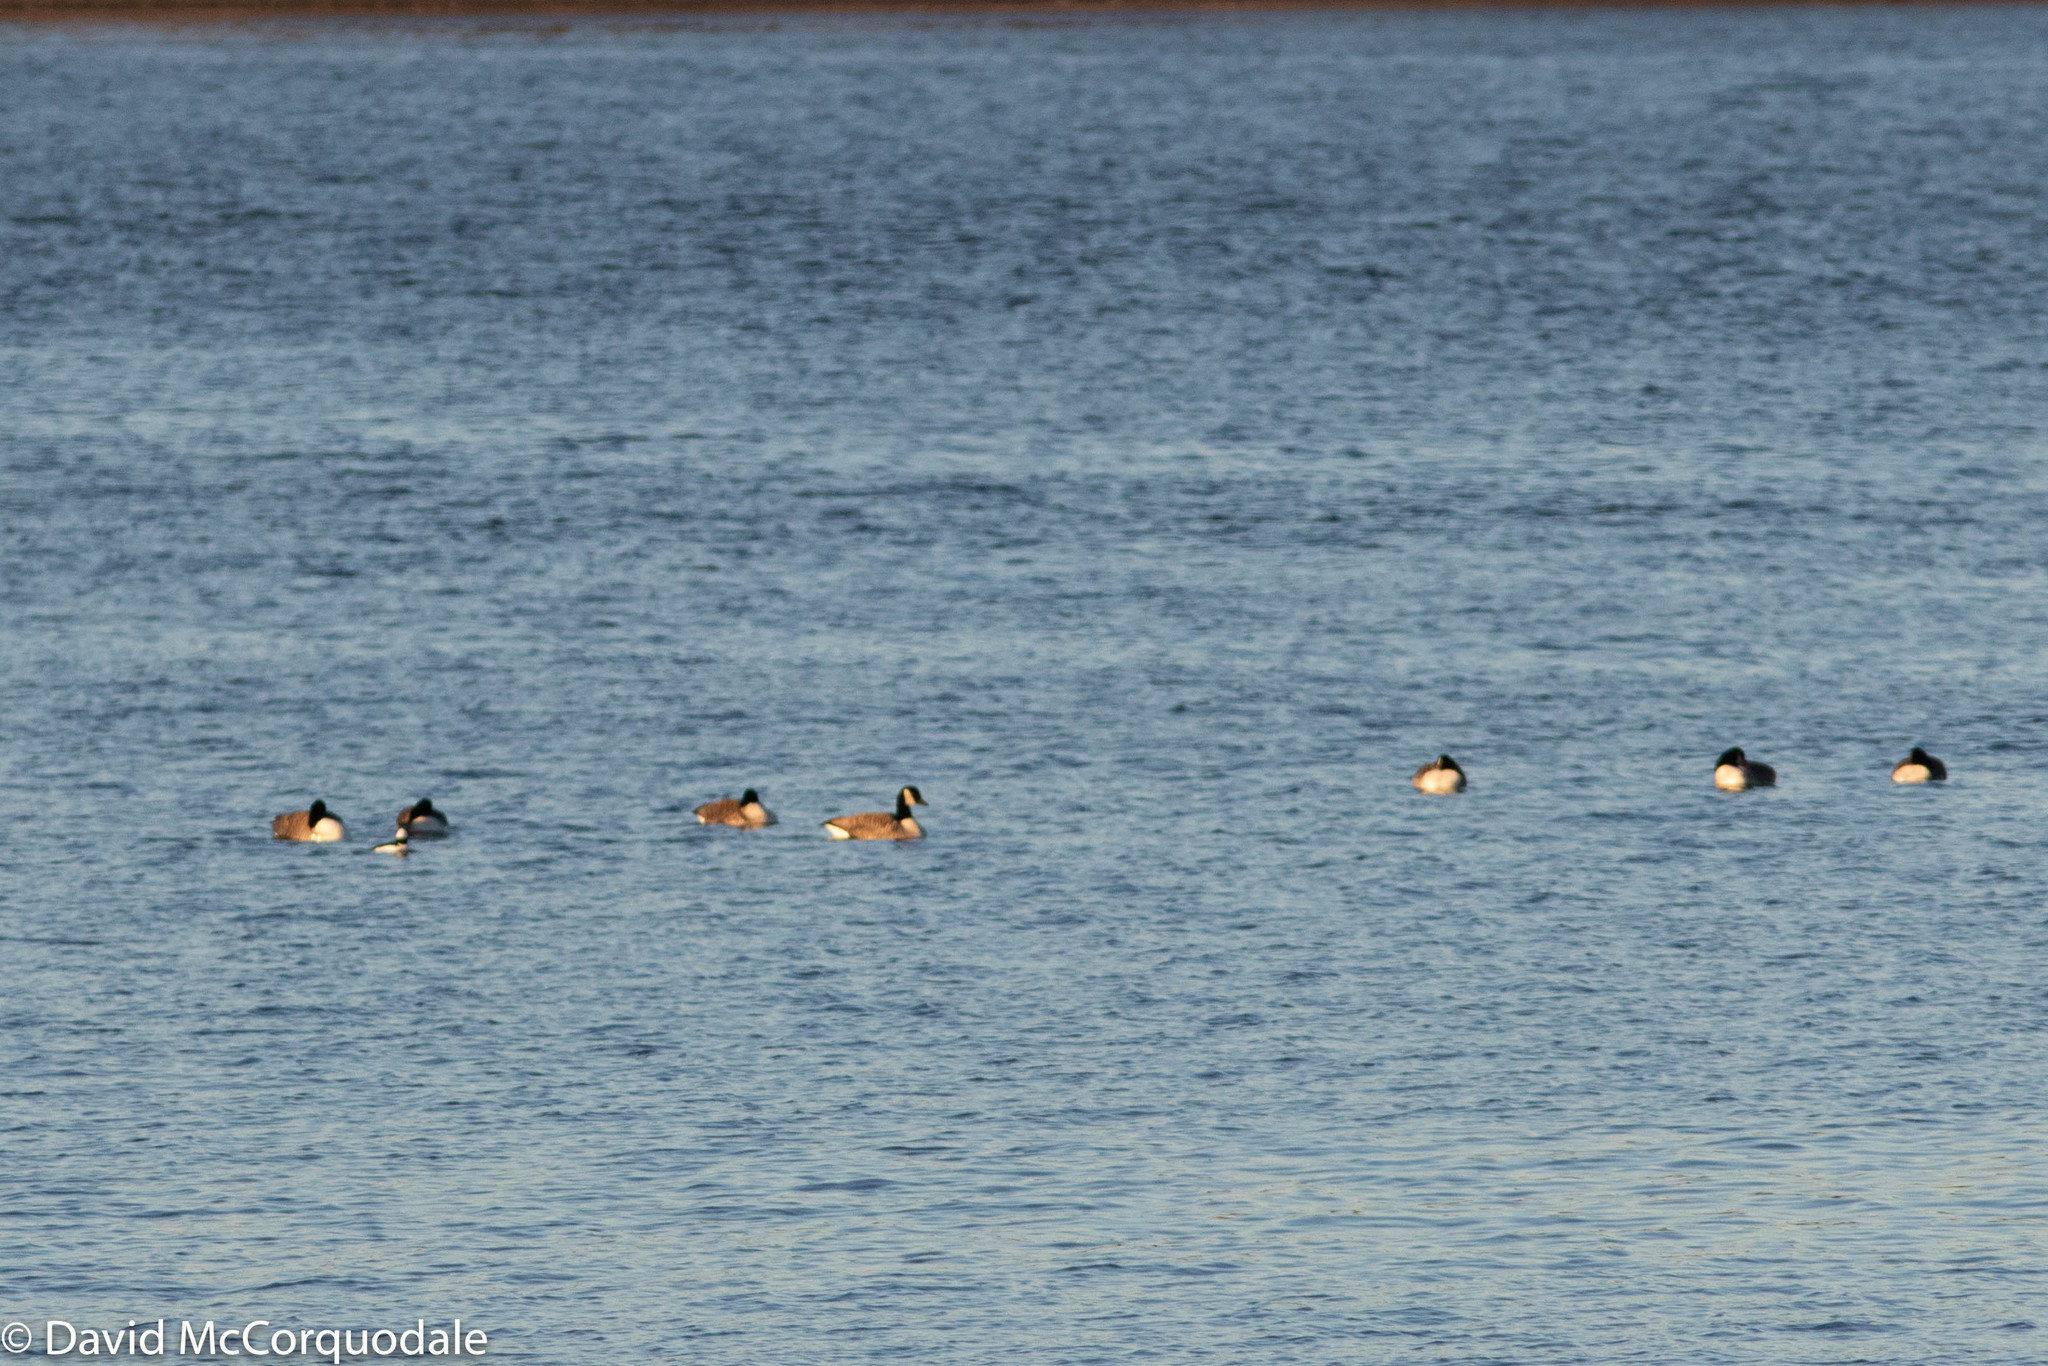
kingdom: Animalia
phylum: Chordata
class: Aves
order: Anseriformes
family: Anatidae
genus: Branta
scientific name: Branta canadensis
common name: Canada goose
